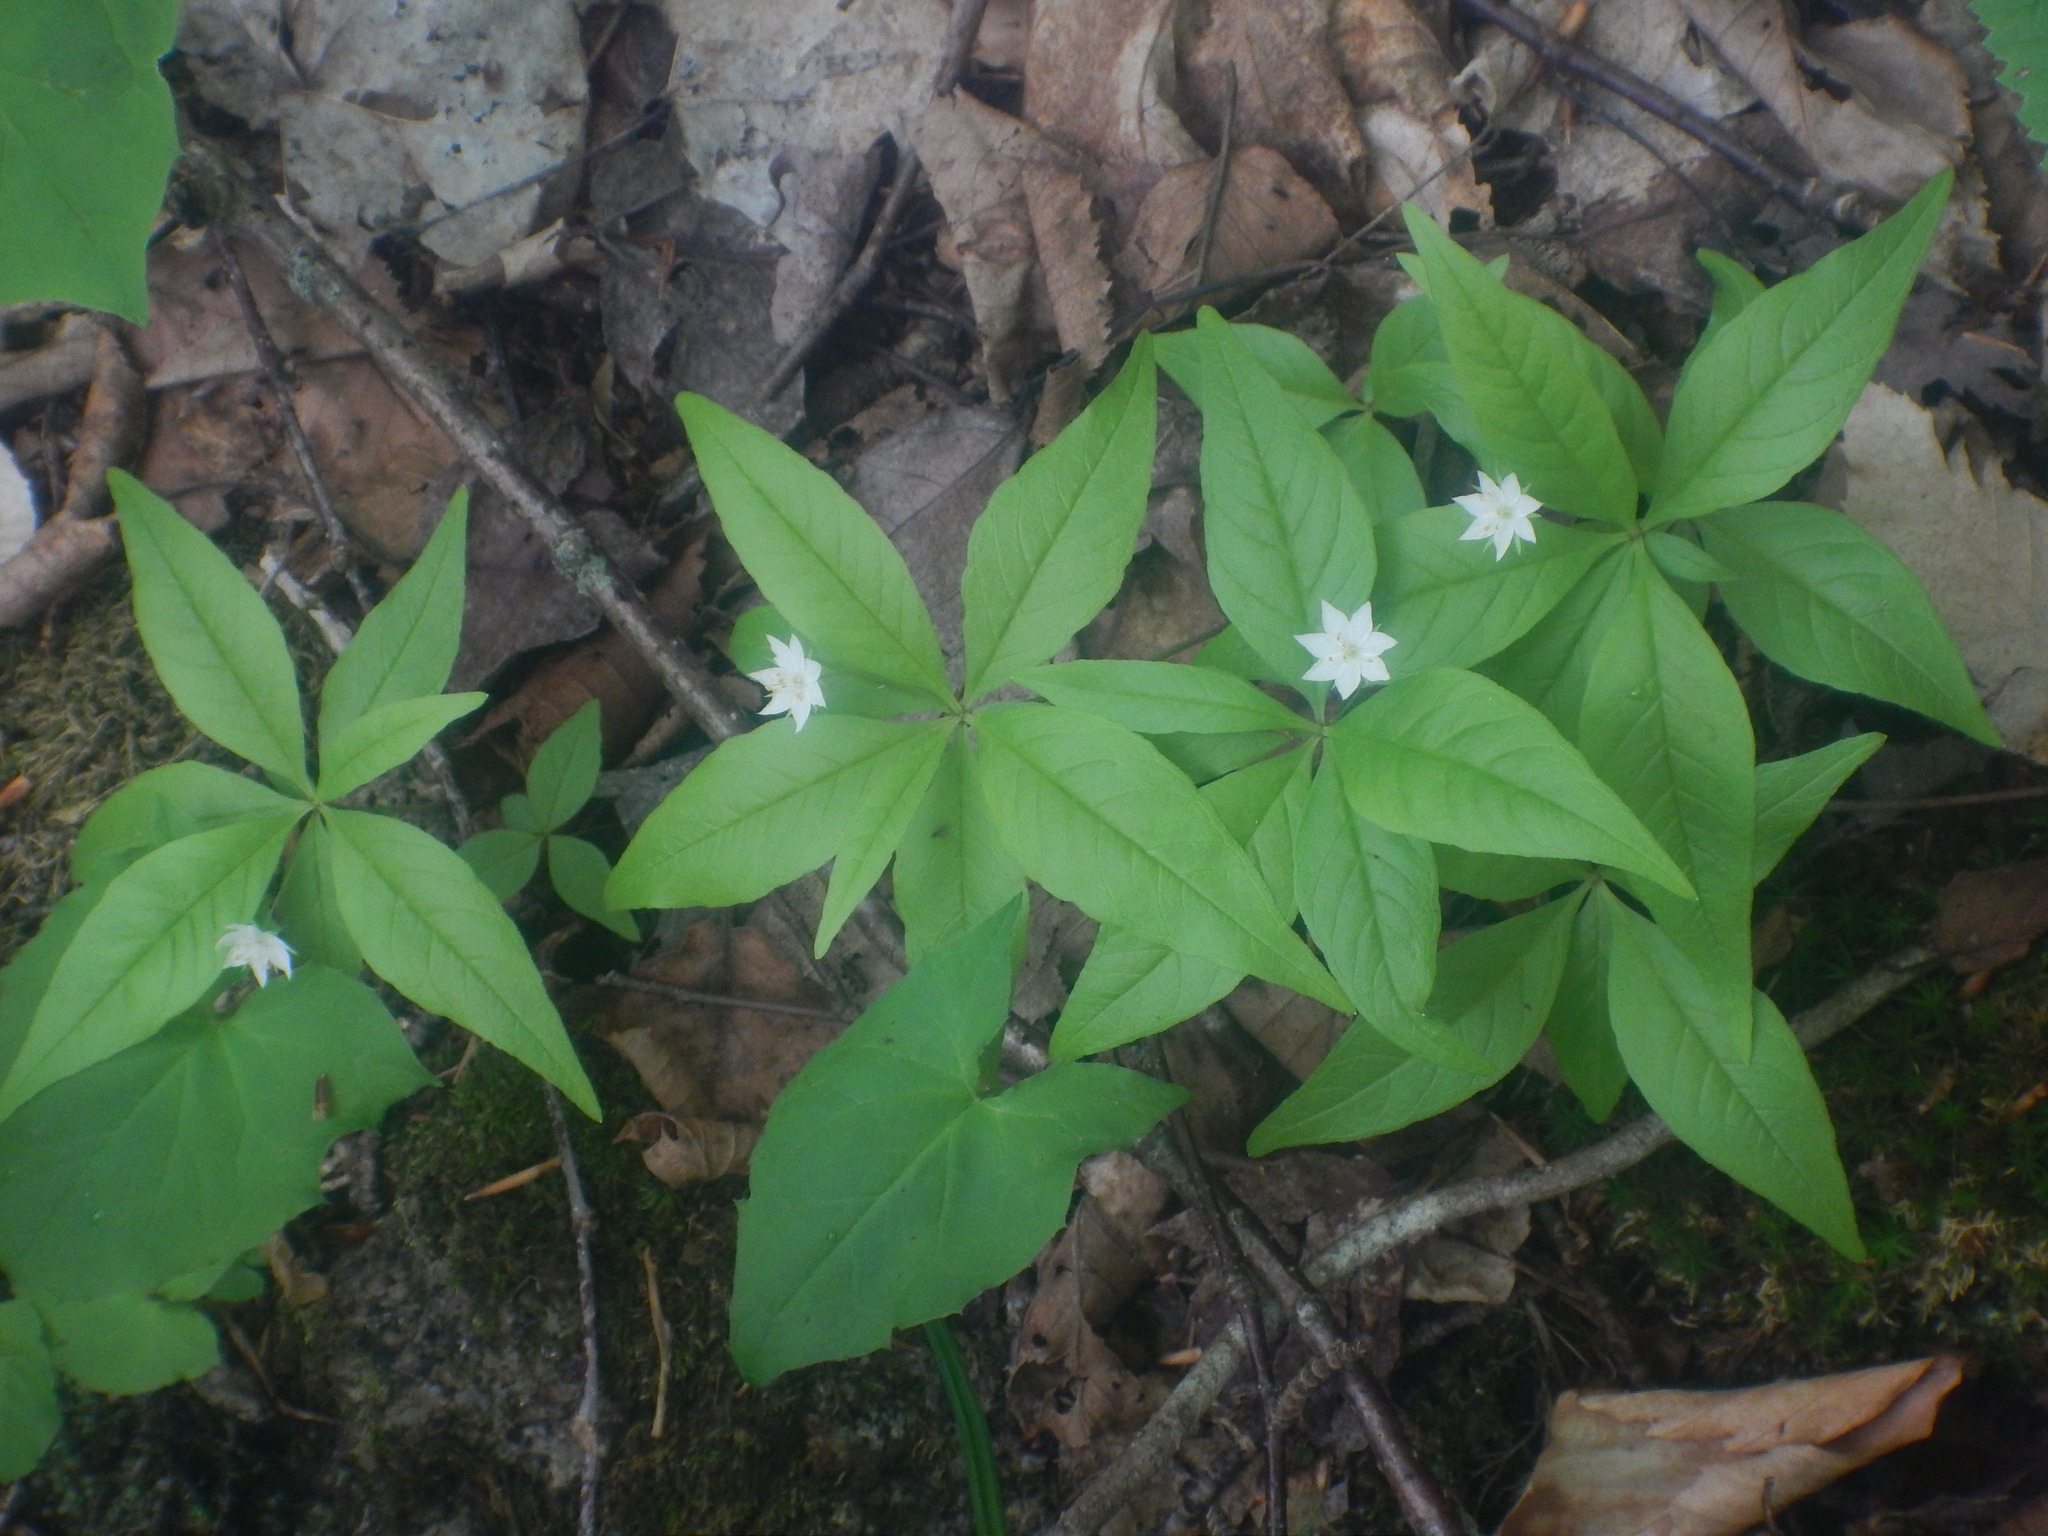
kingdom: Plantae
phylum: Tracheophyta
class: Magnoliopsida
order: Ericales
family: Primulaceae
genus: Lysimachia
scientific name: Lysimachia borealis
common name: American starflower
